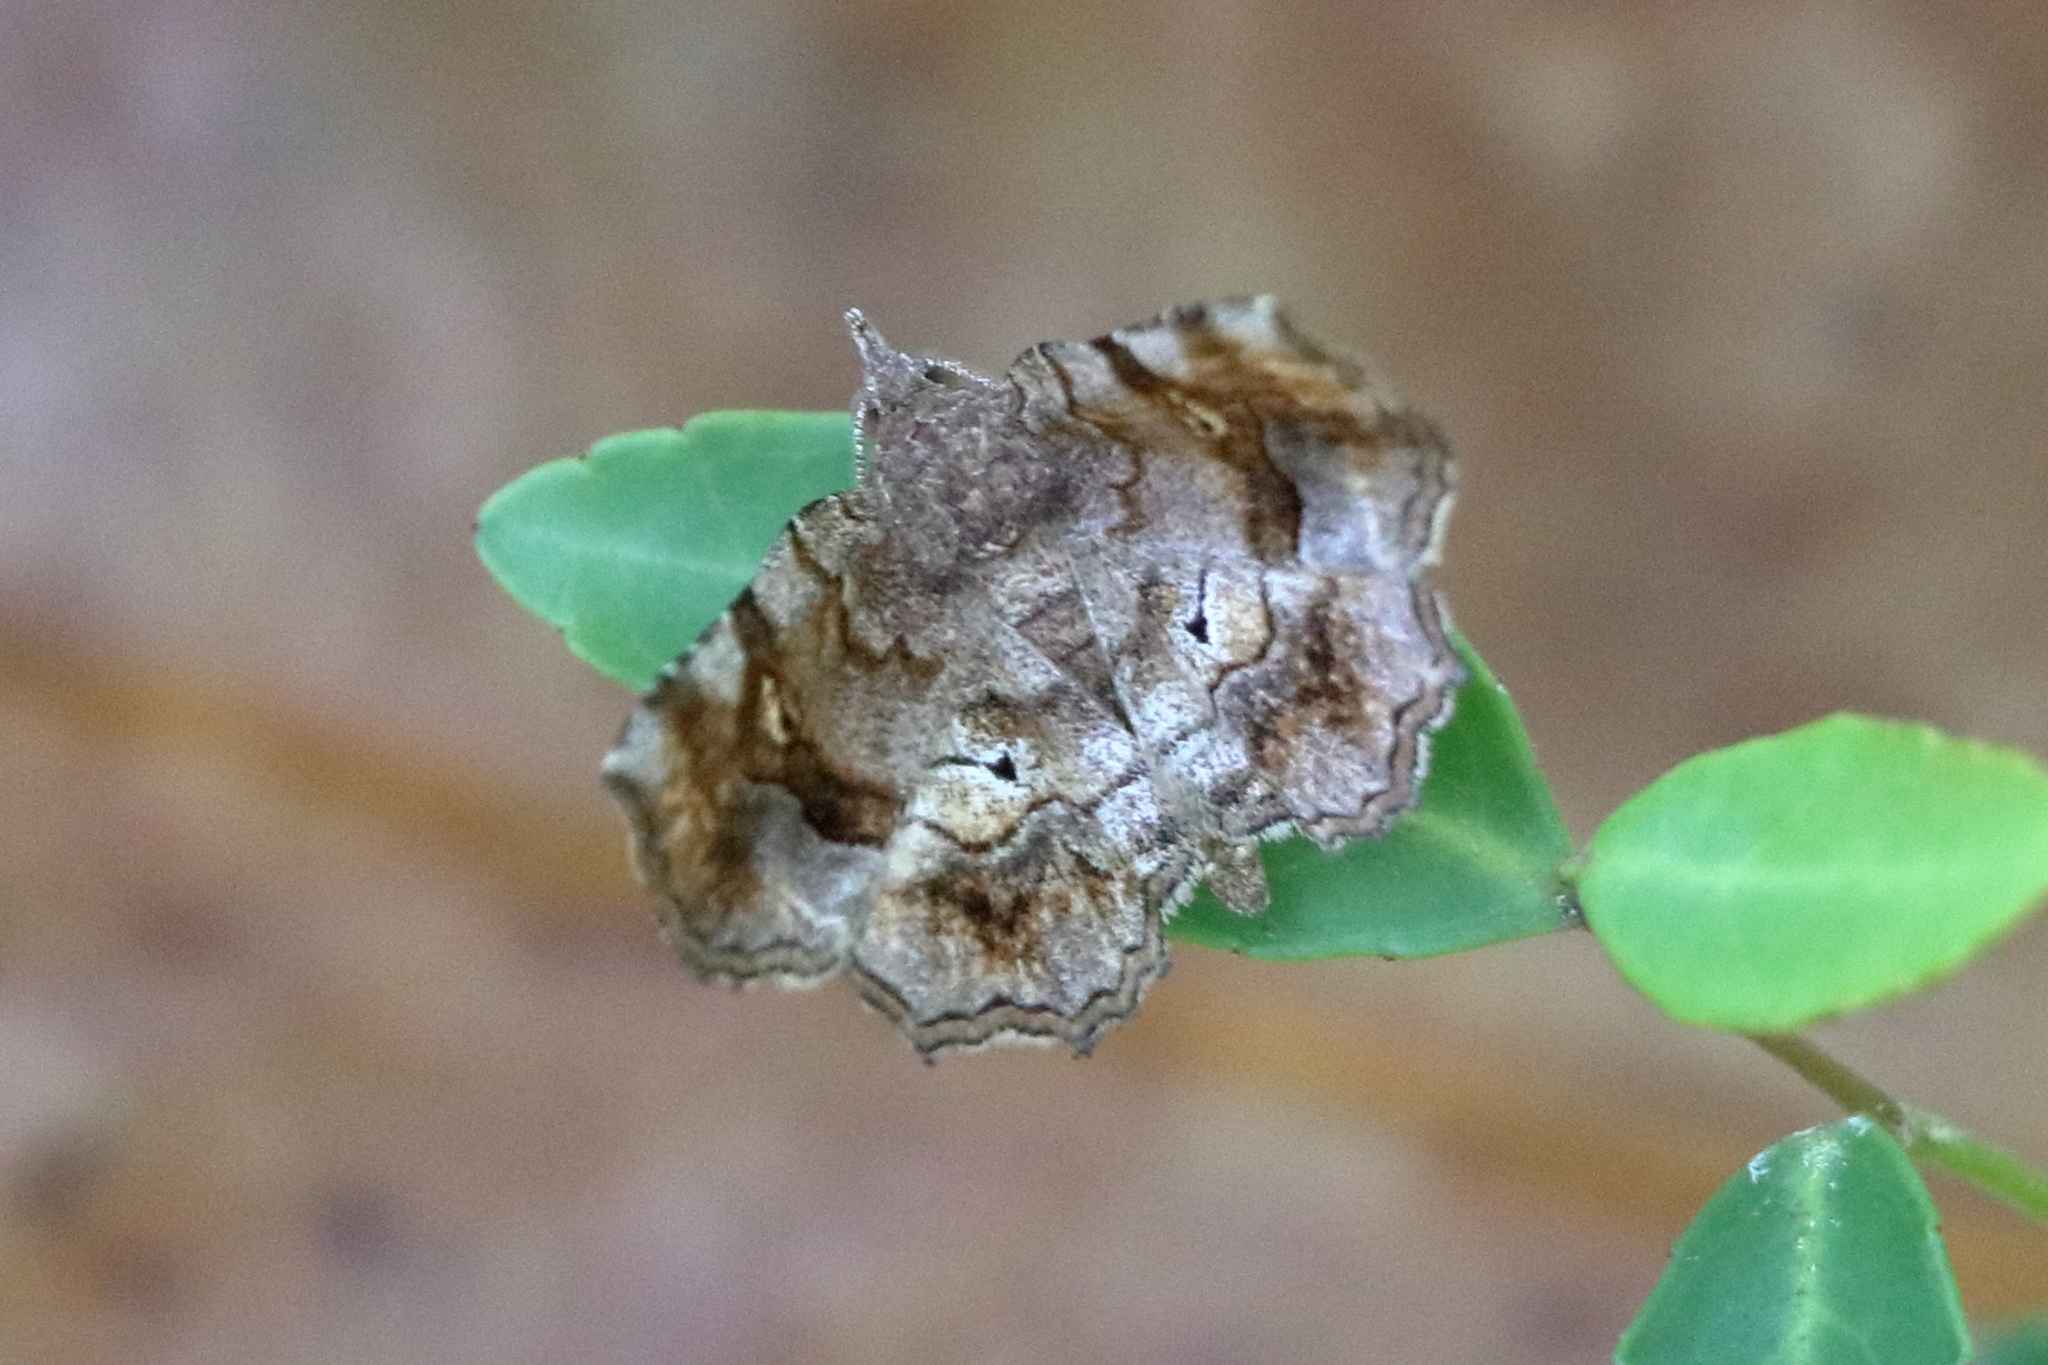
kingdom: Animalia
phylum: Arthropoda
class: Insecta
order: Lepidoptera
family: Erebidae
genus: Pangrapta
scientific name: Pangrapta decoralis
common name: Decorated owlet
